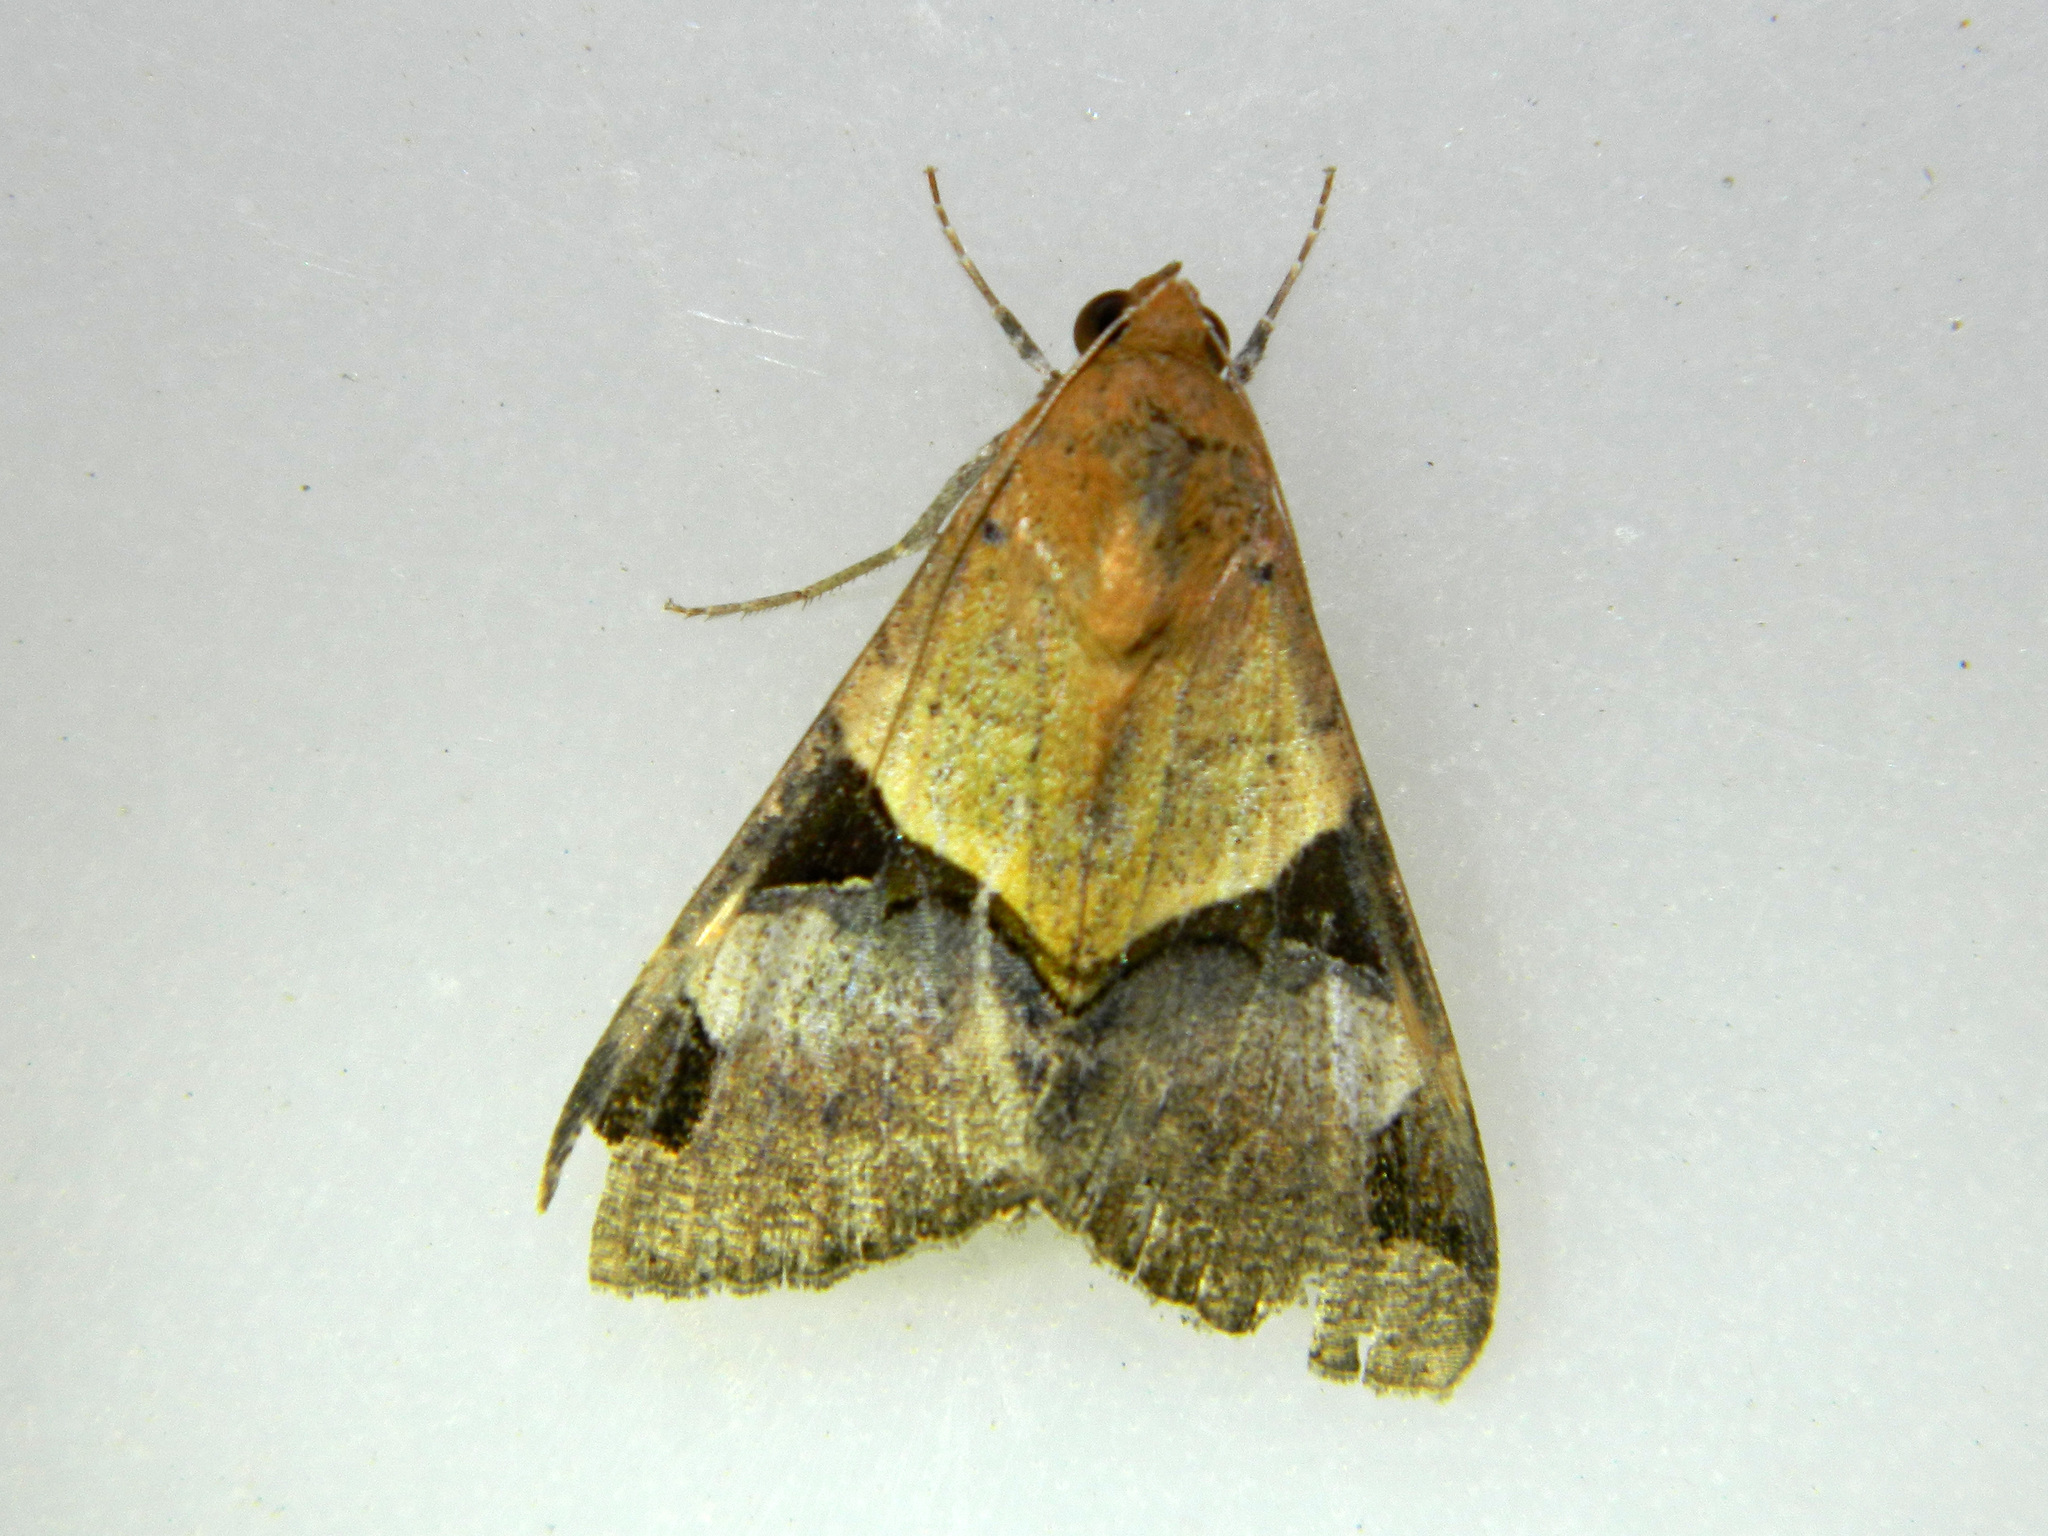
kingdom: Animalia
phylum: Arthropoda
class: Insecta
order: Lepidoptera
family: Erebidae
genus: Melipotis
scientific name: Melipotis fasciolaris
